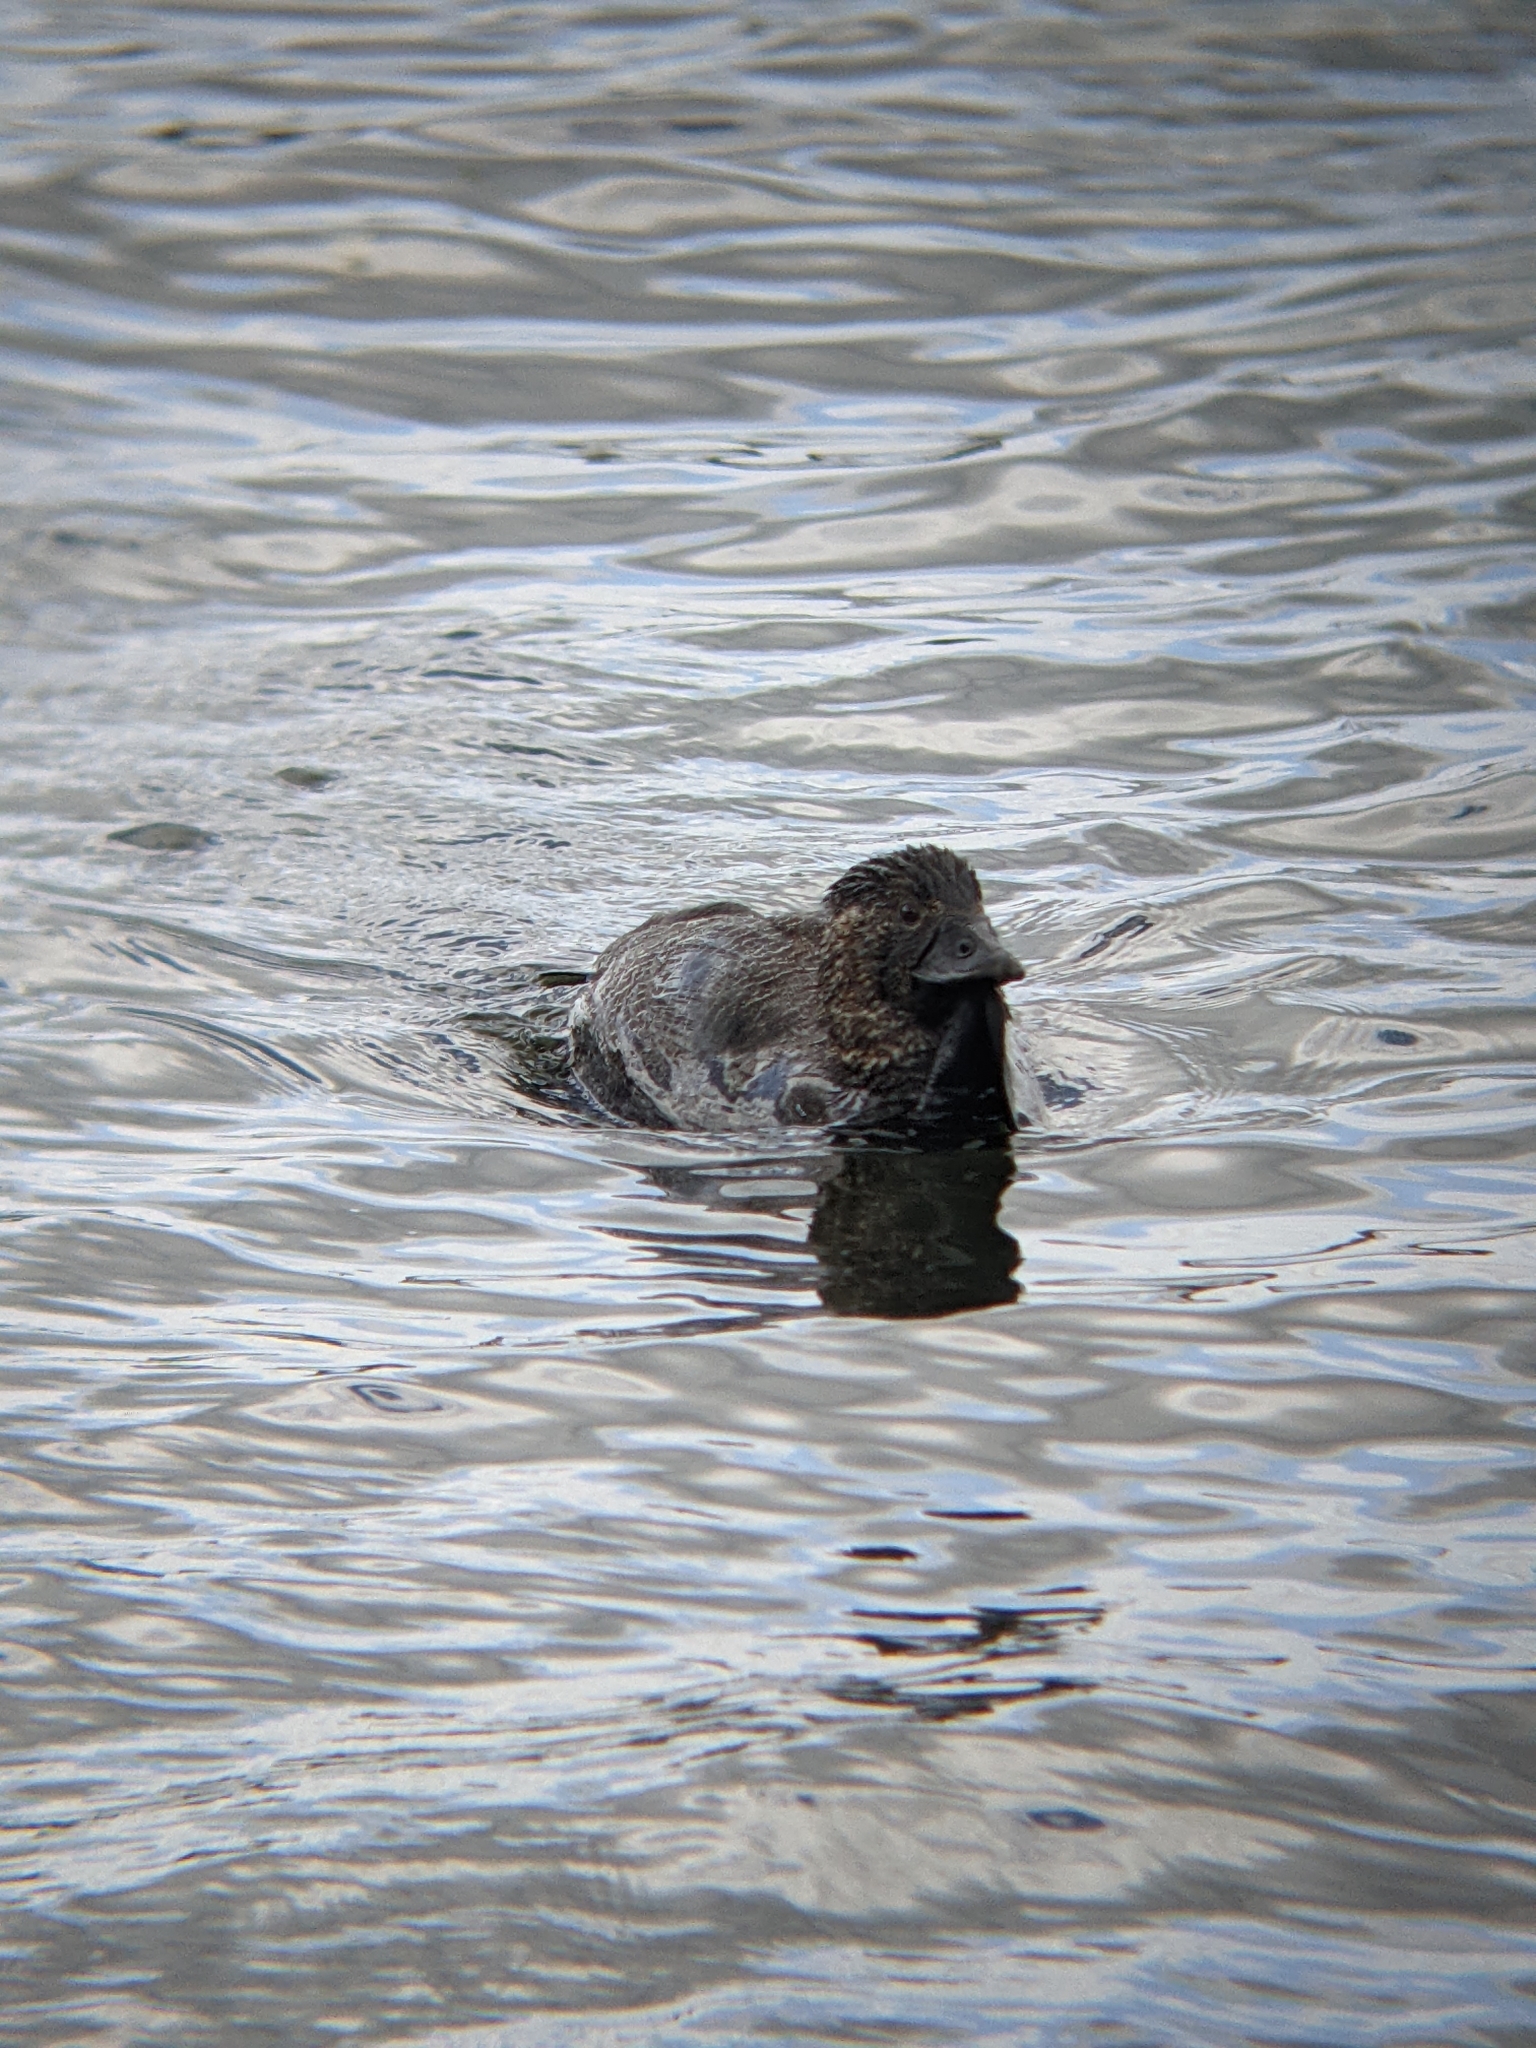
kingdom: Animalia
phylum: Chordata
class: Aves
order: Anseriformes
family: Anatidae
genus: Biziura
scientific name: Biziura lobata
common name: Musk duck
